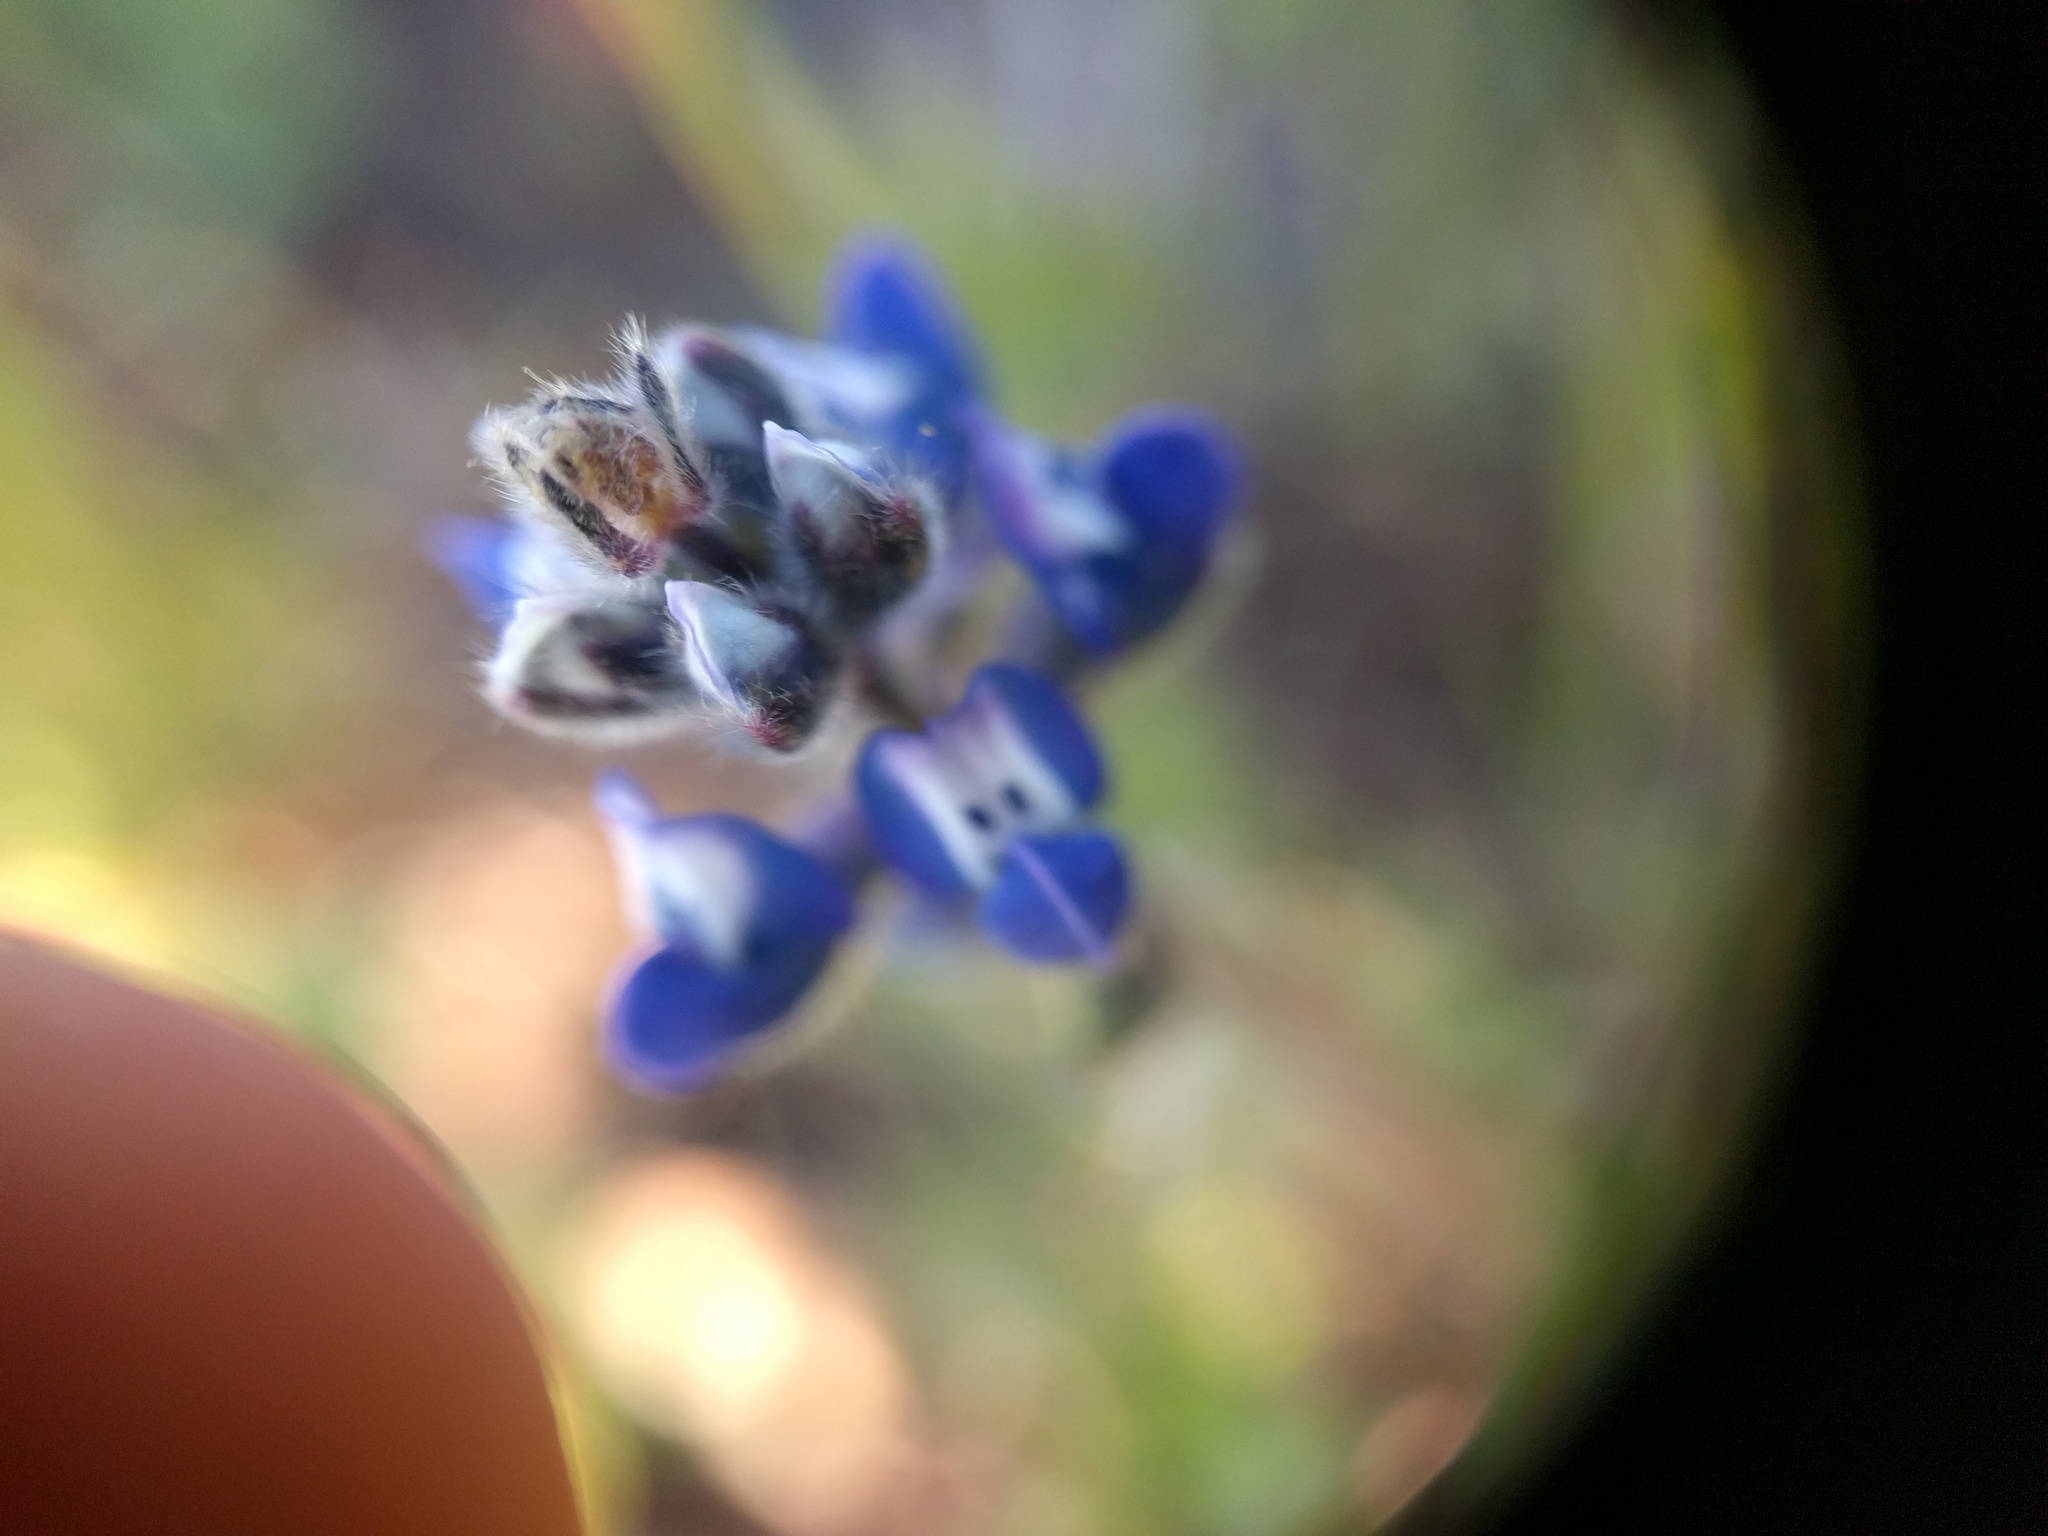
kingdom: Plantae
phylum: Tracheophyta
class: Magnoliopsida
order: Fabales
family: Fabaceae
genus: Lupinus
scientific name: Lupinus bicolor
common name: Miniature lupine
